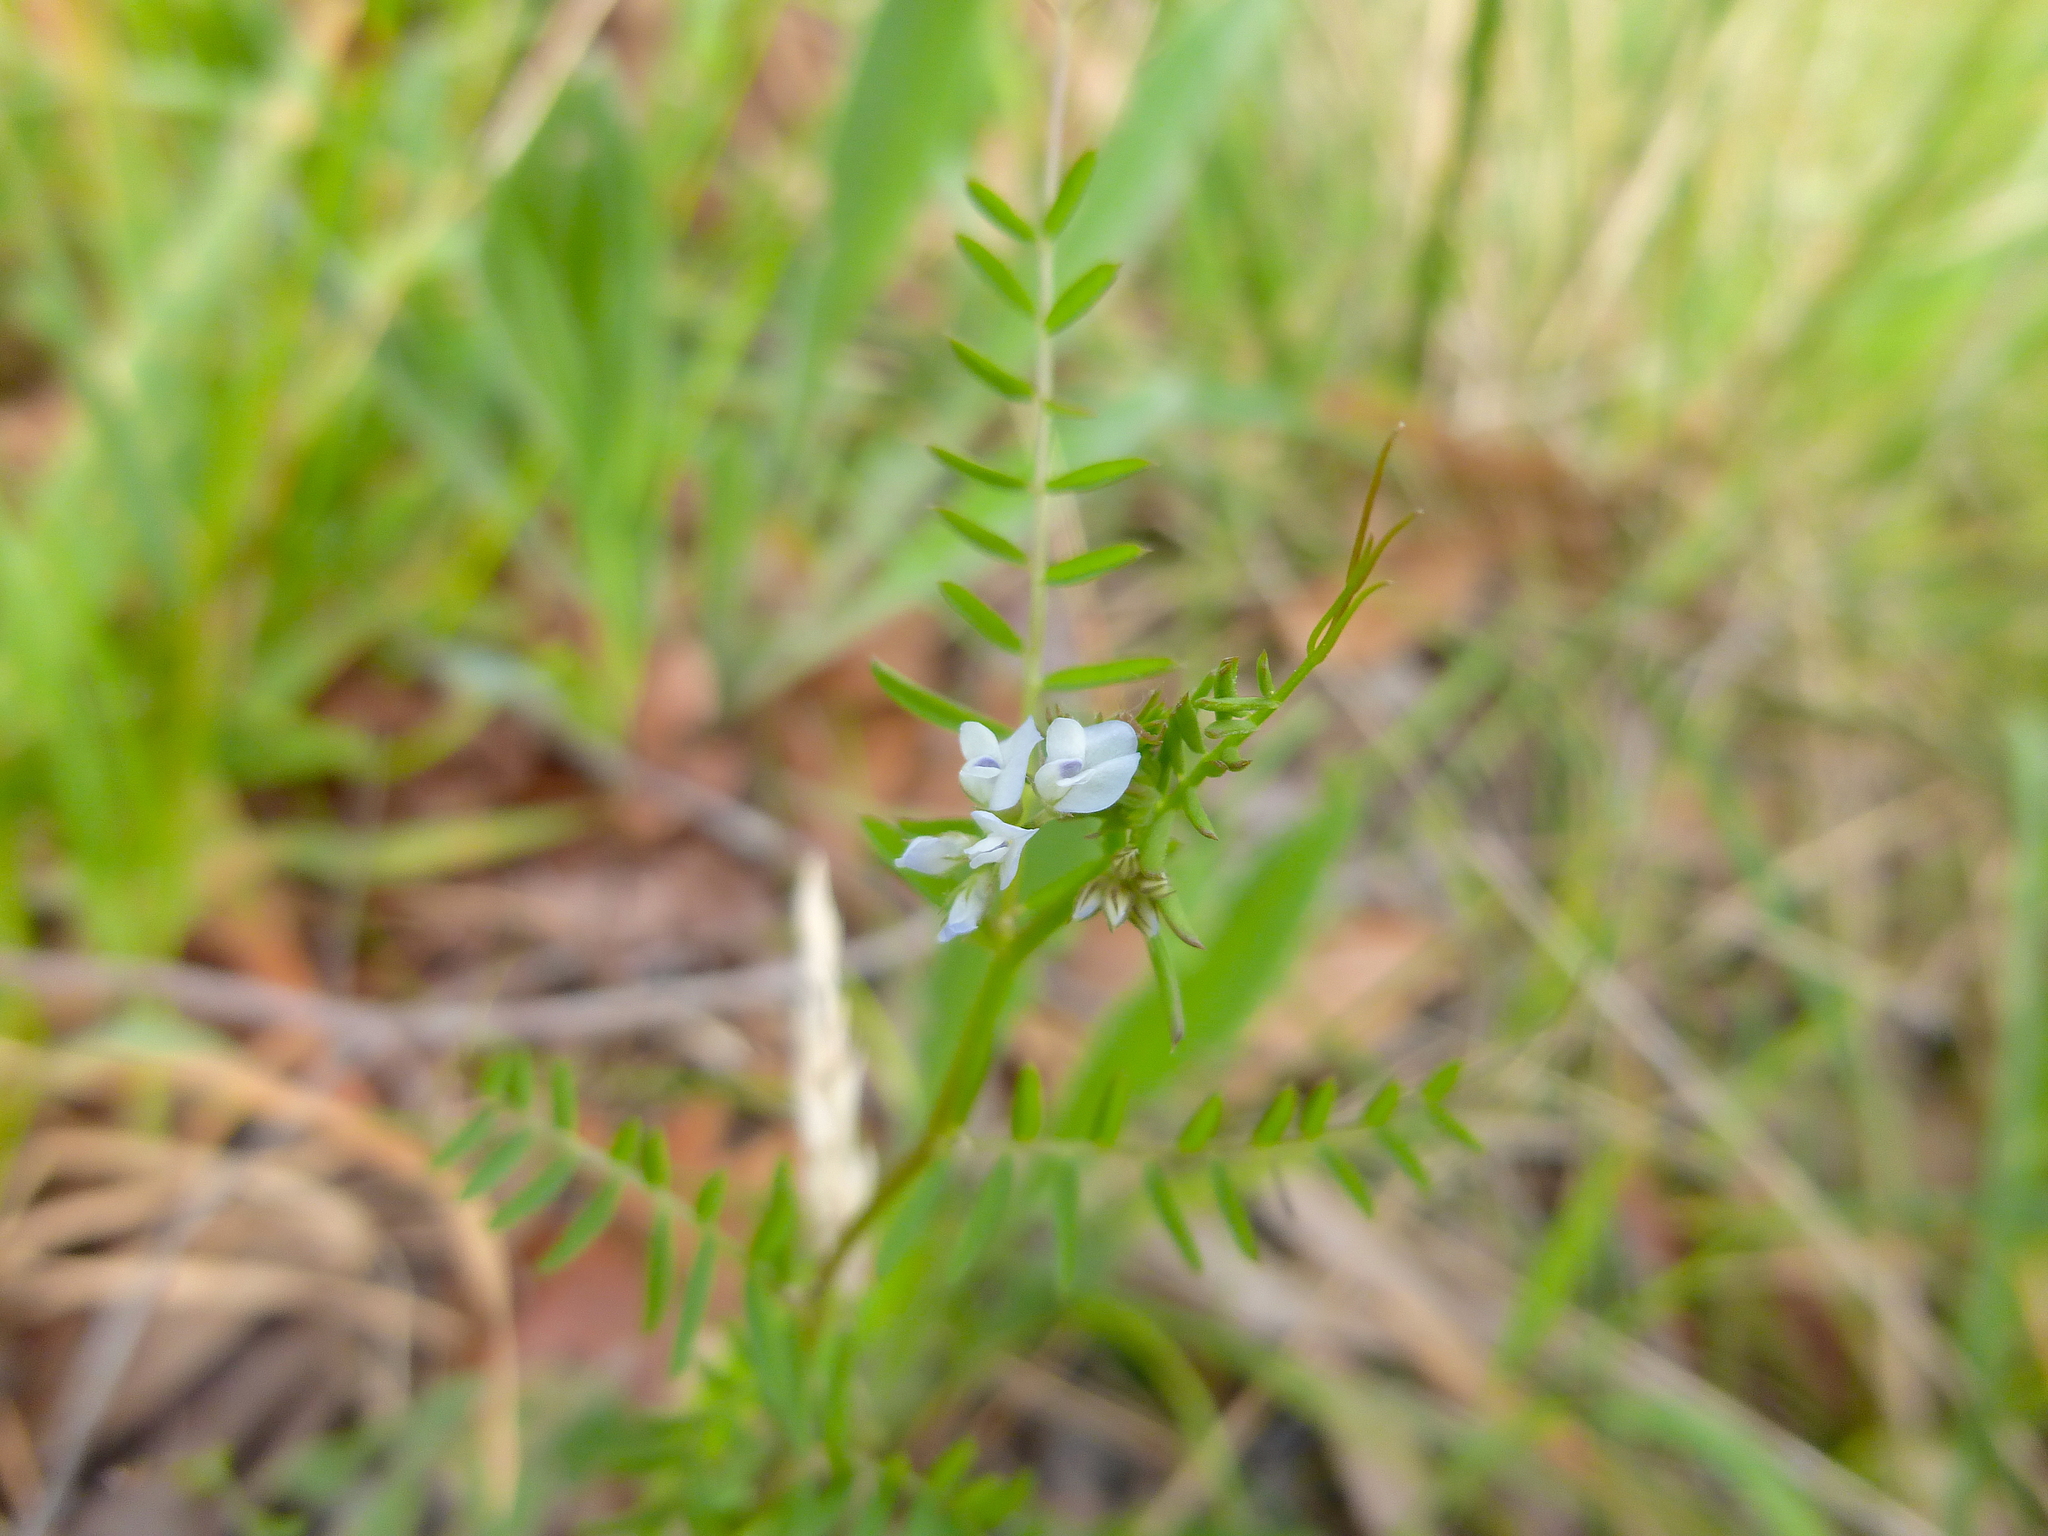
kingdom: Plantae
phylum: Tracheophyta
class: Magnoliopsida
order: Fabales
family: Fabaceae
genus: Vicia
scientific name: Vicia hirsuta
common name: Tiny vetch
